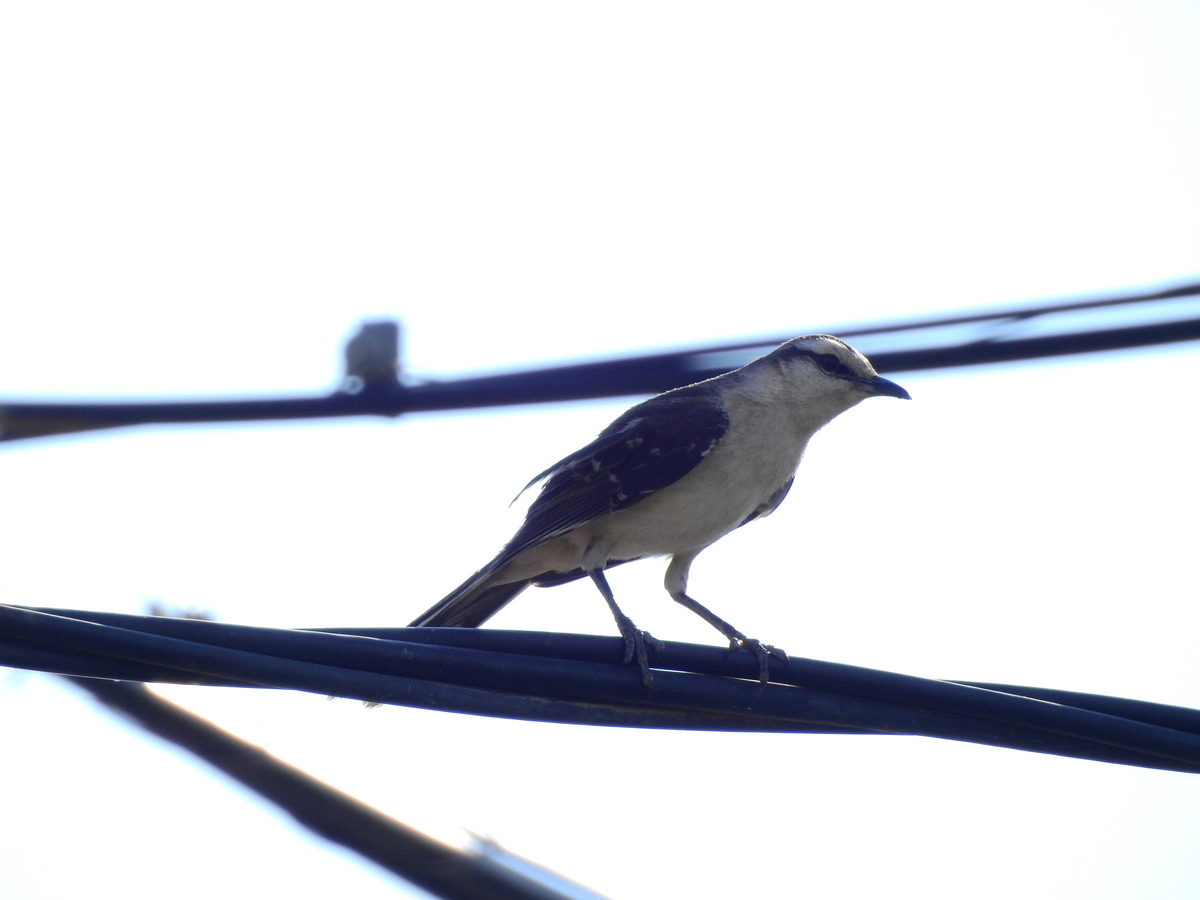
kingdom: Animalia
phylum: Chordata
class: Aves
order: Passeriformes
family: Mimidae
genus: Mimus
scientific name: Mimus saturninus
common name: Chalk-browed mockingbird
